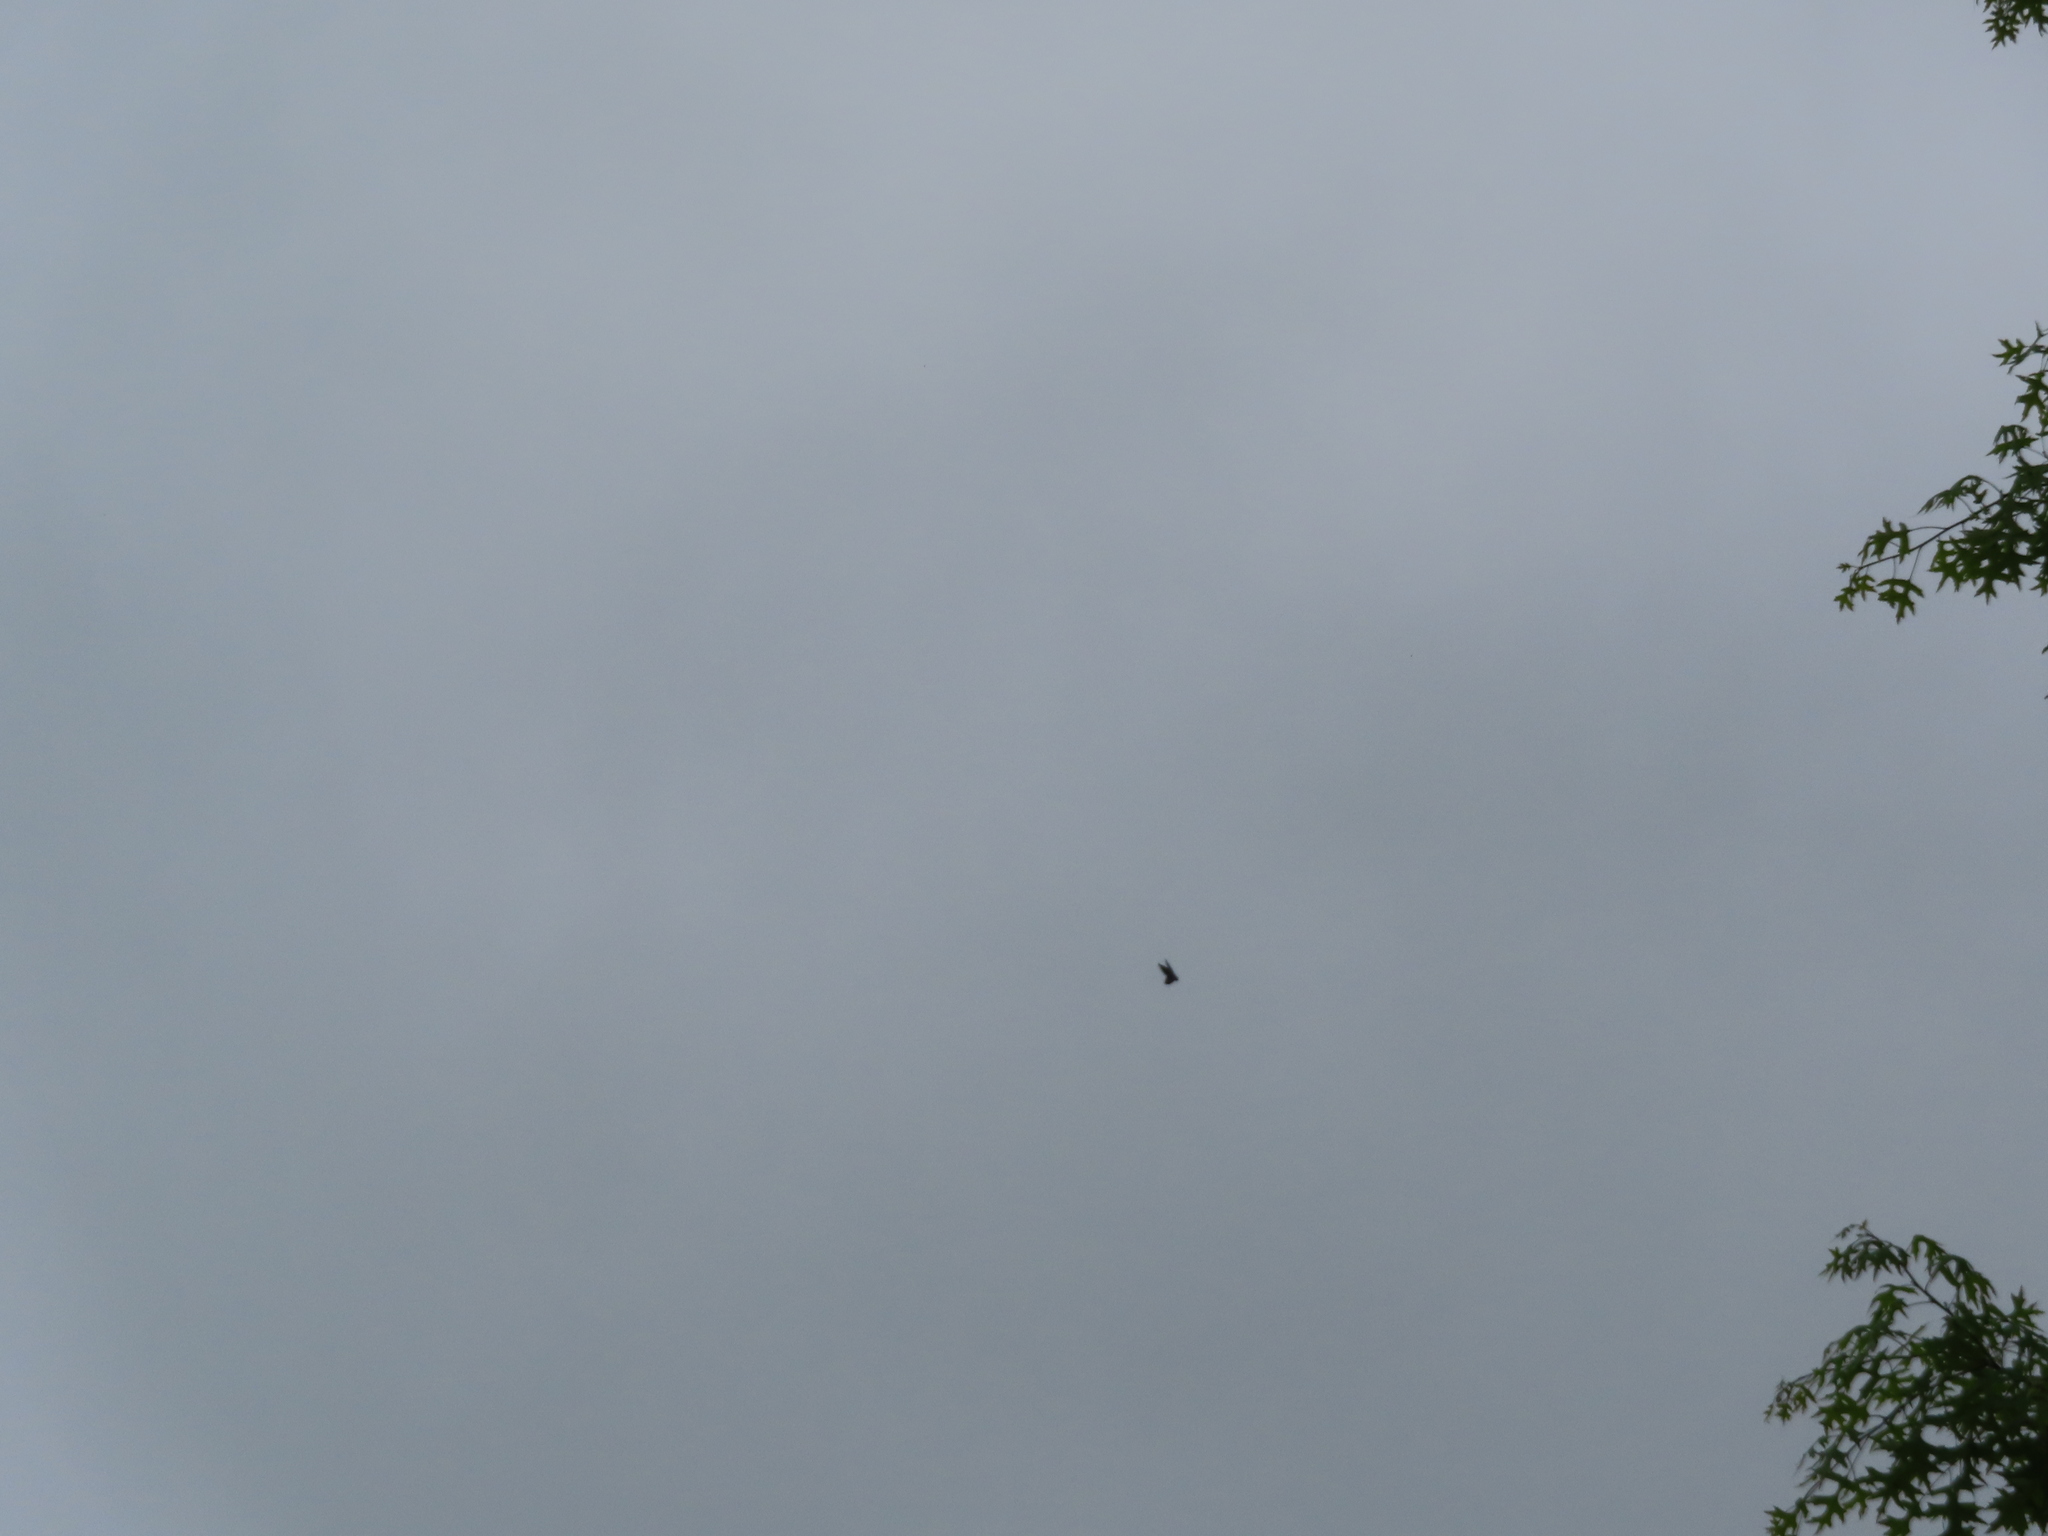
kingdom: Animalia
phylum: Chordata
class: Aves
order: Apodiformes
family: Apodidae
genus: Chaetura
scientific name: Chaetura pelagica
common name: Chimney swift
